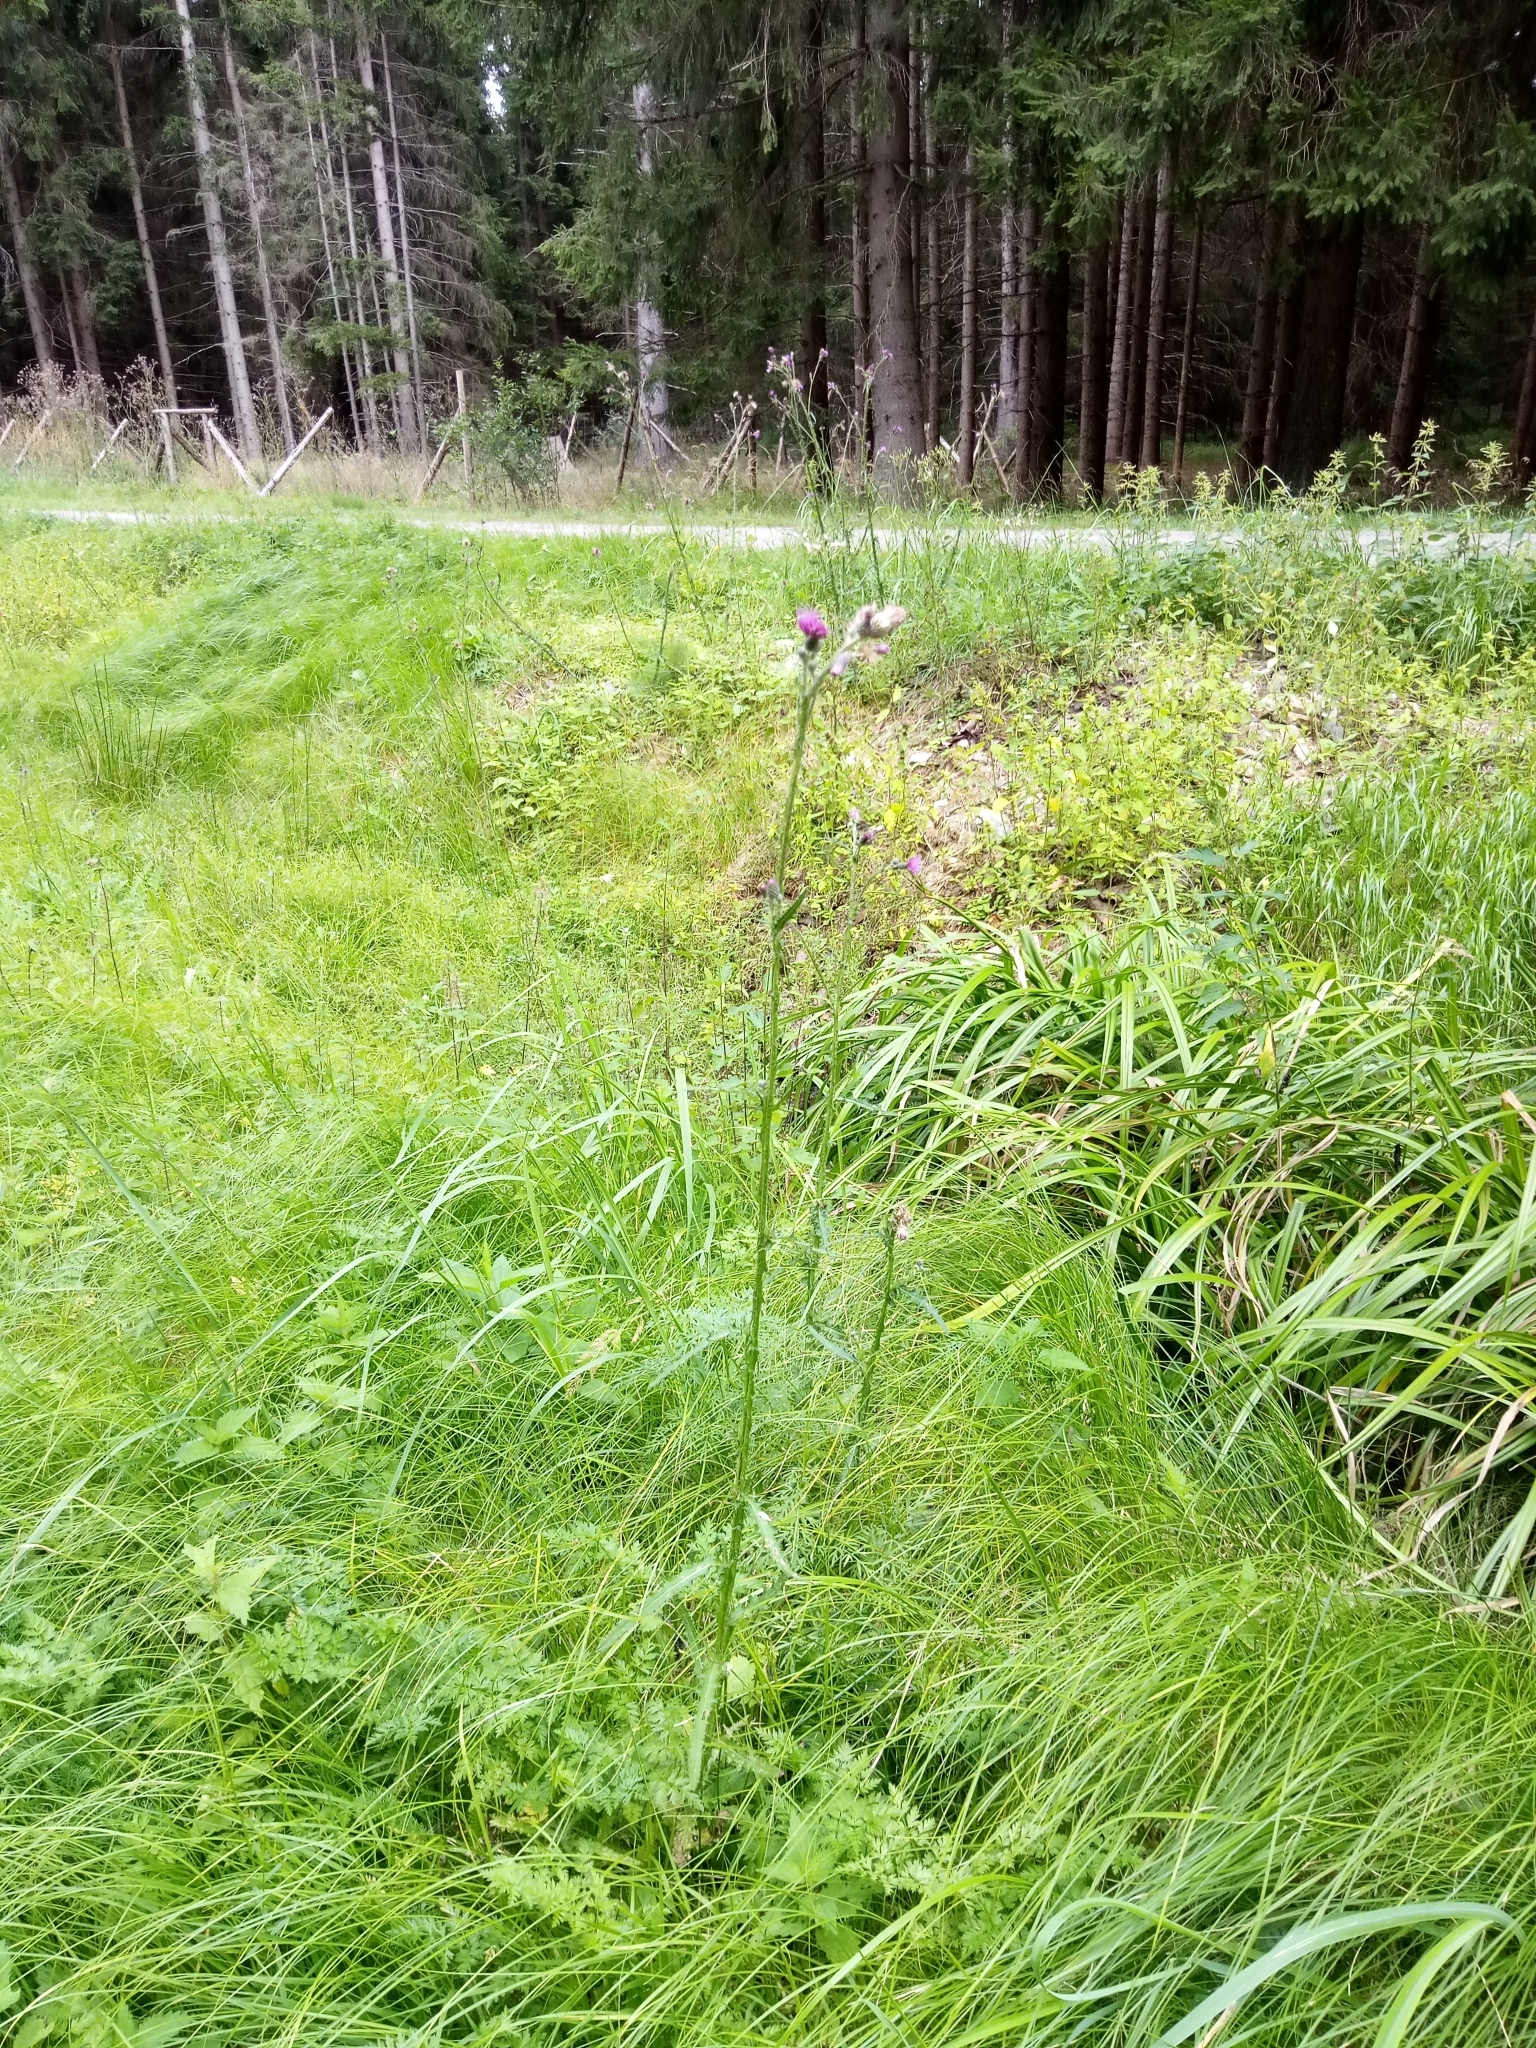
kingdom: Plantae
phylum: Tracheophyta
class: Magnoliopsida
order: Asterales
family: Asteraceae
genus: Cirsium
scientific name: Cirsium palustre
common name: Marsh thistle
